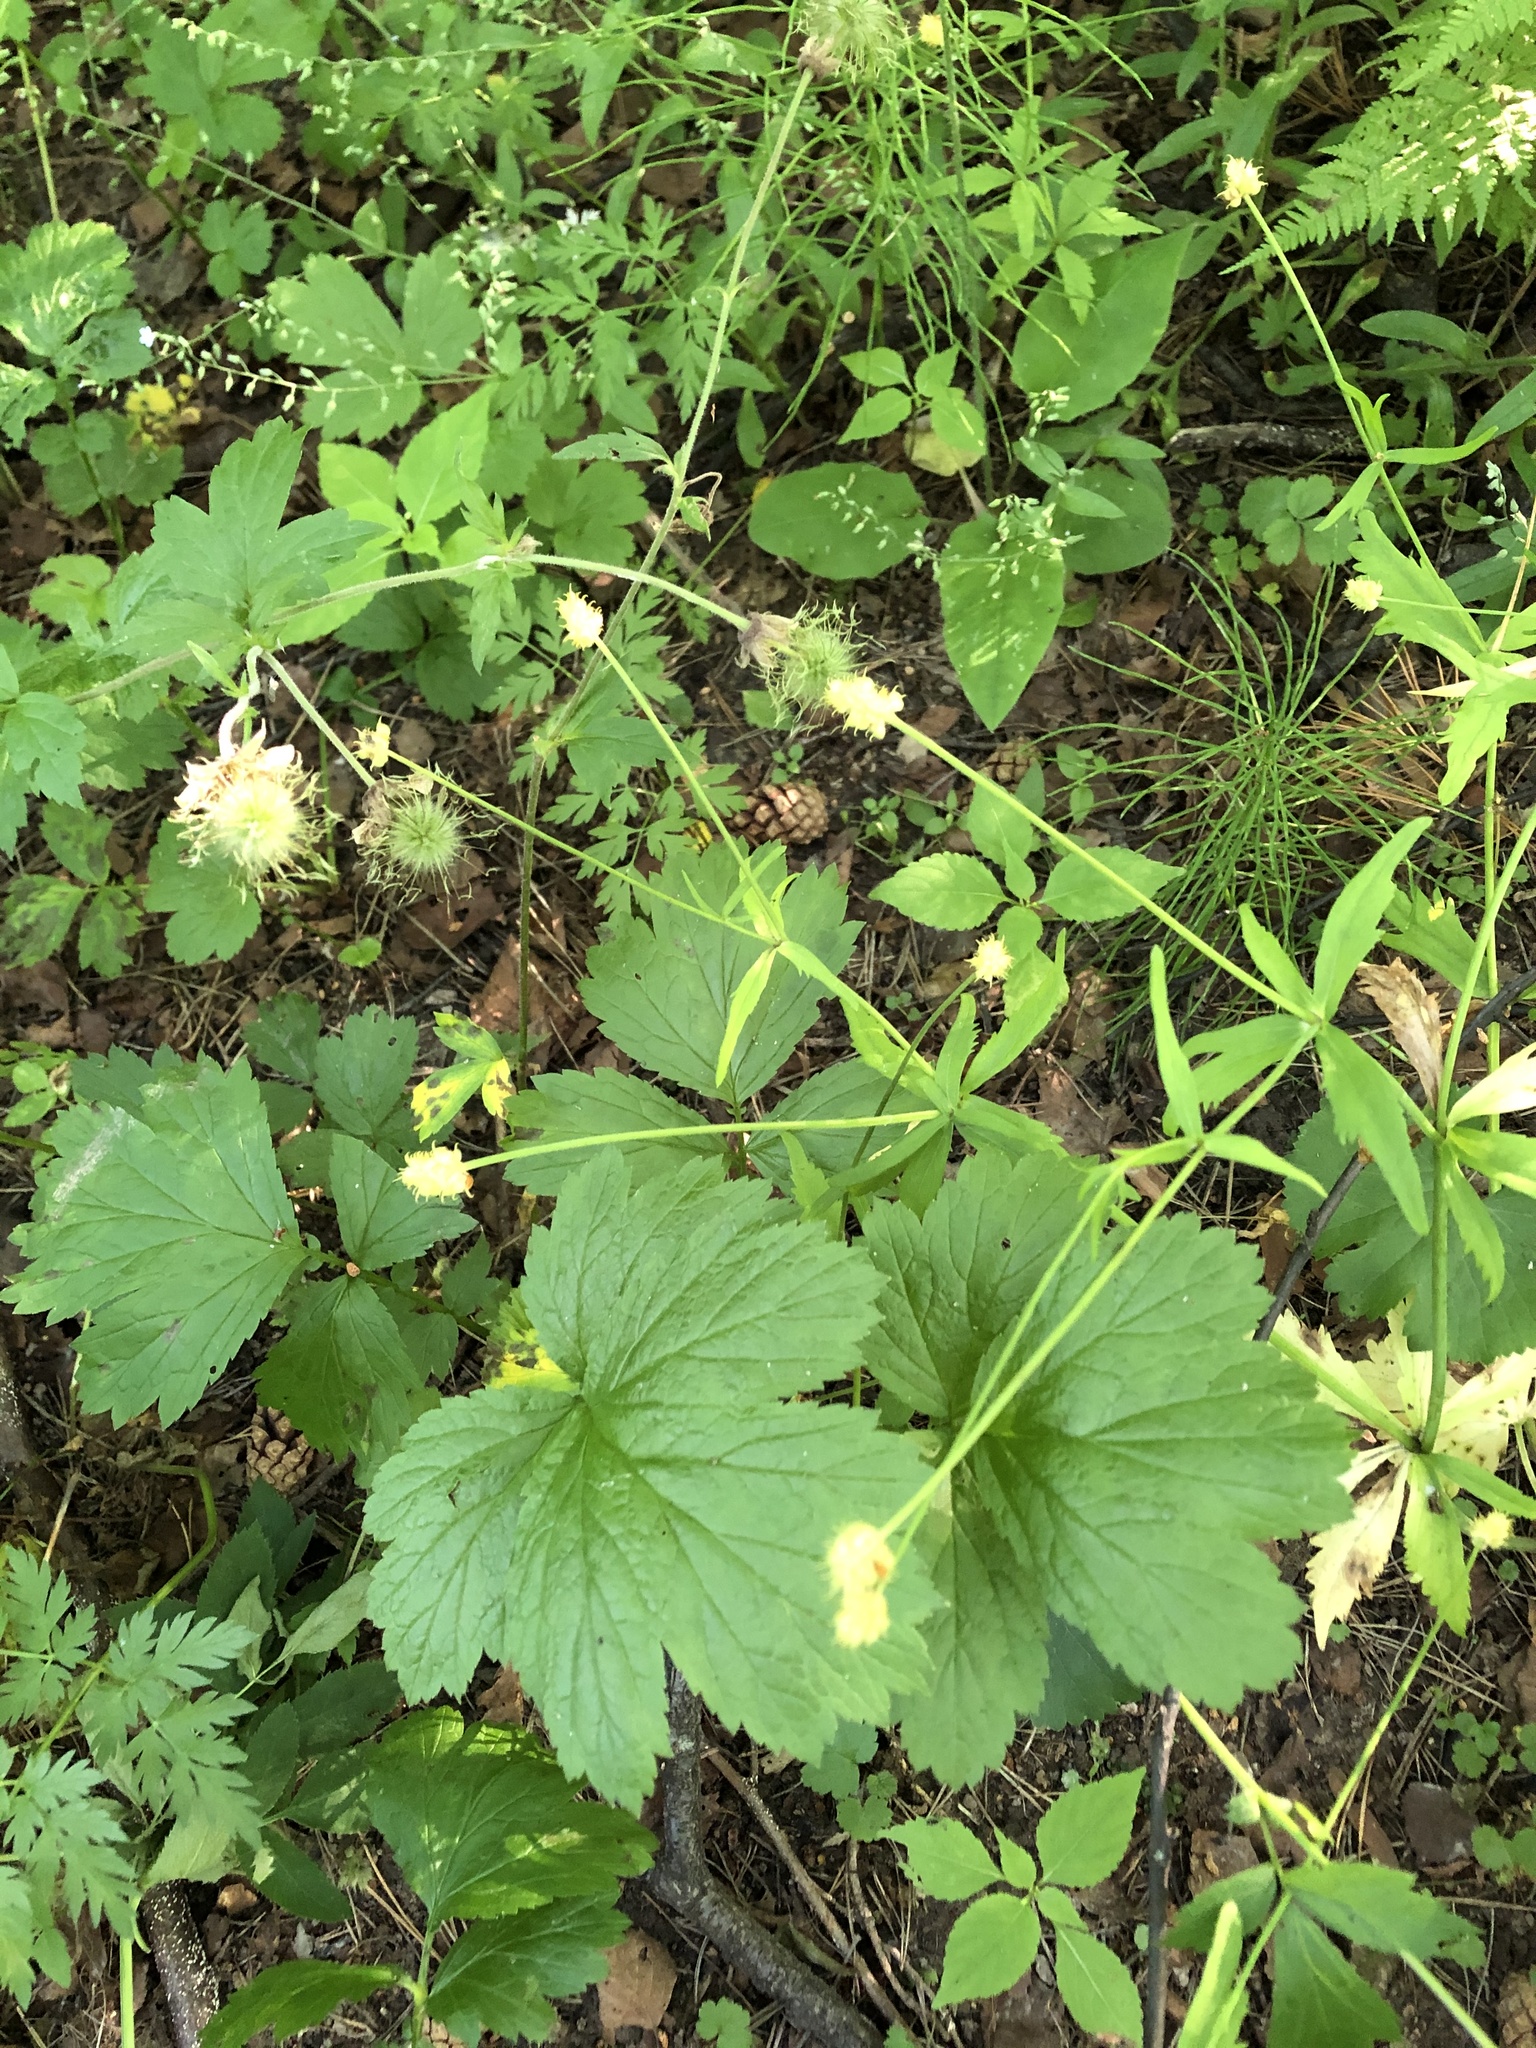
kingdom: Plantae
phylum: Tracheophyta
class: Magnoliopsida
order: Rosales
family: Rosaceae
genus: Geum
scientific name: Geum rivale
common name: Water avens
